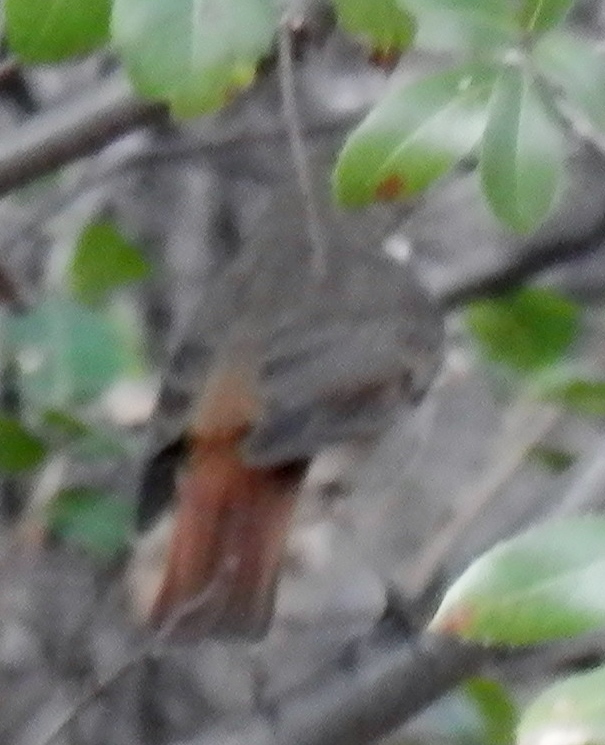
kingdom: Animalia
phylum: Chordata
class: Aves
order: Passeriformes
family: Turdidae
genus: Catharus
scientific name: Catharus guttatus
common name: Hermit thrush
